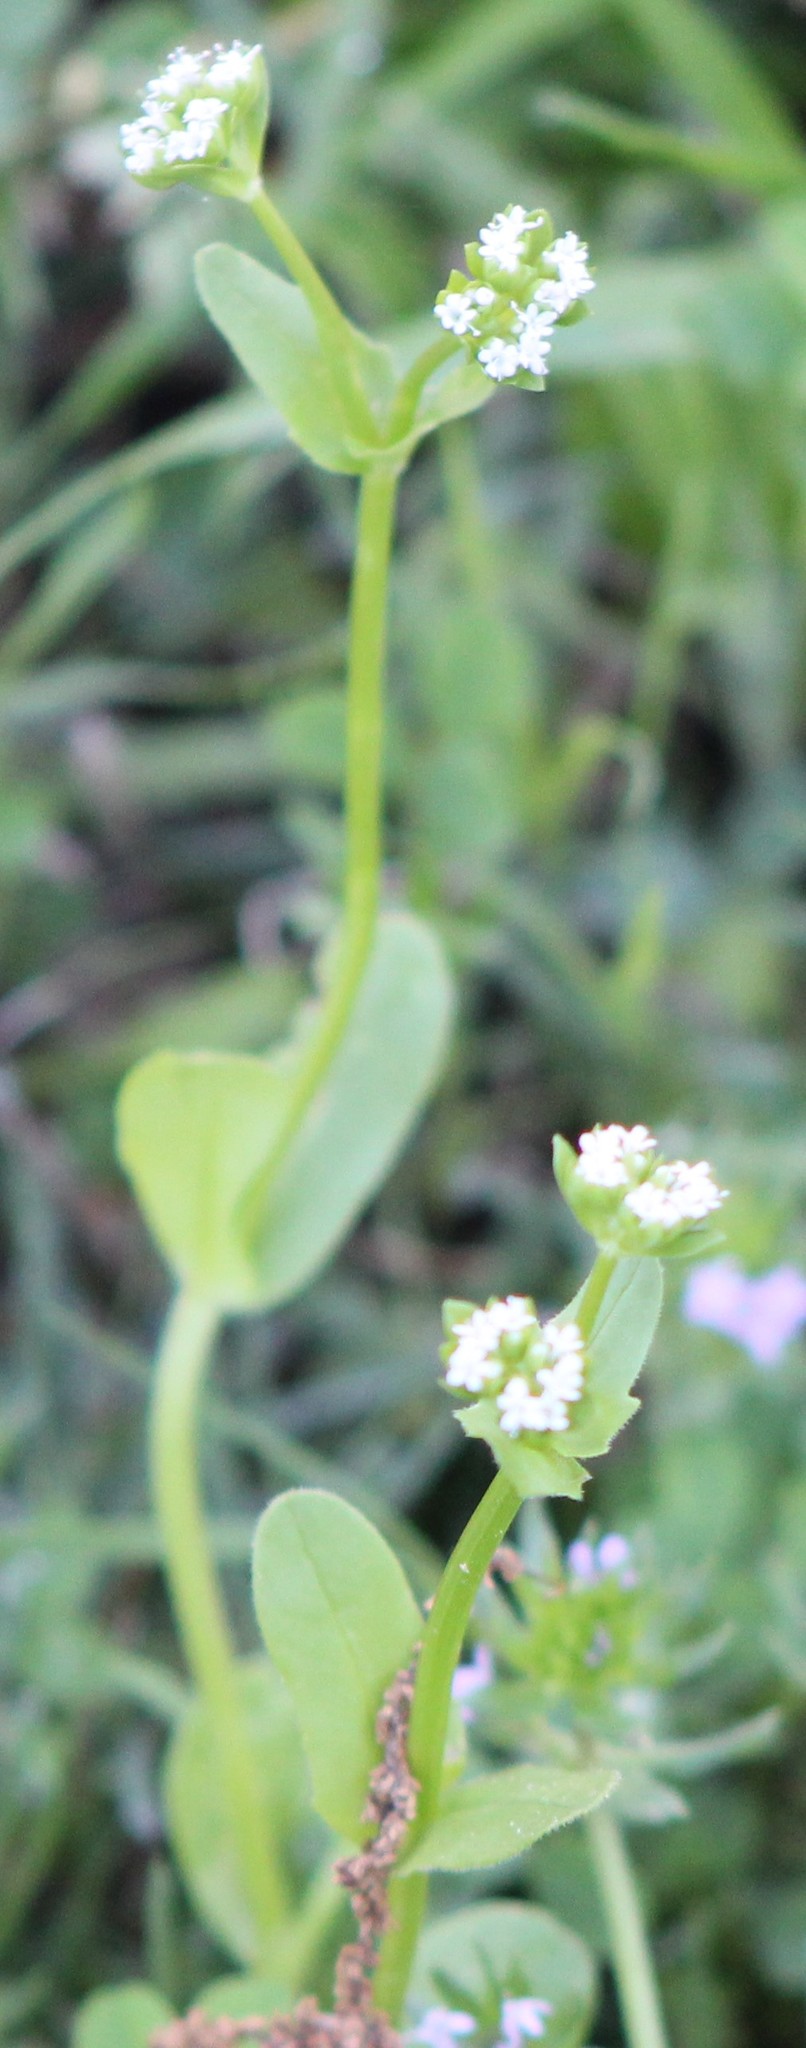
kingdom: Plantae
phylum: Tracheophyta
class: Magnoliopsida
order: Dipsacales
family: Caprifoliaceae
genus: Valerianella
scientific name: Valerianella radiata
